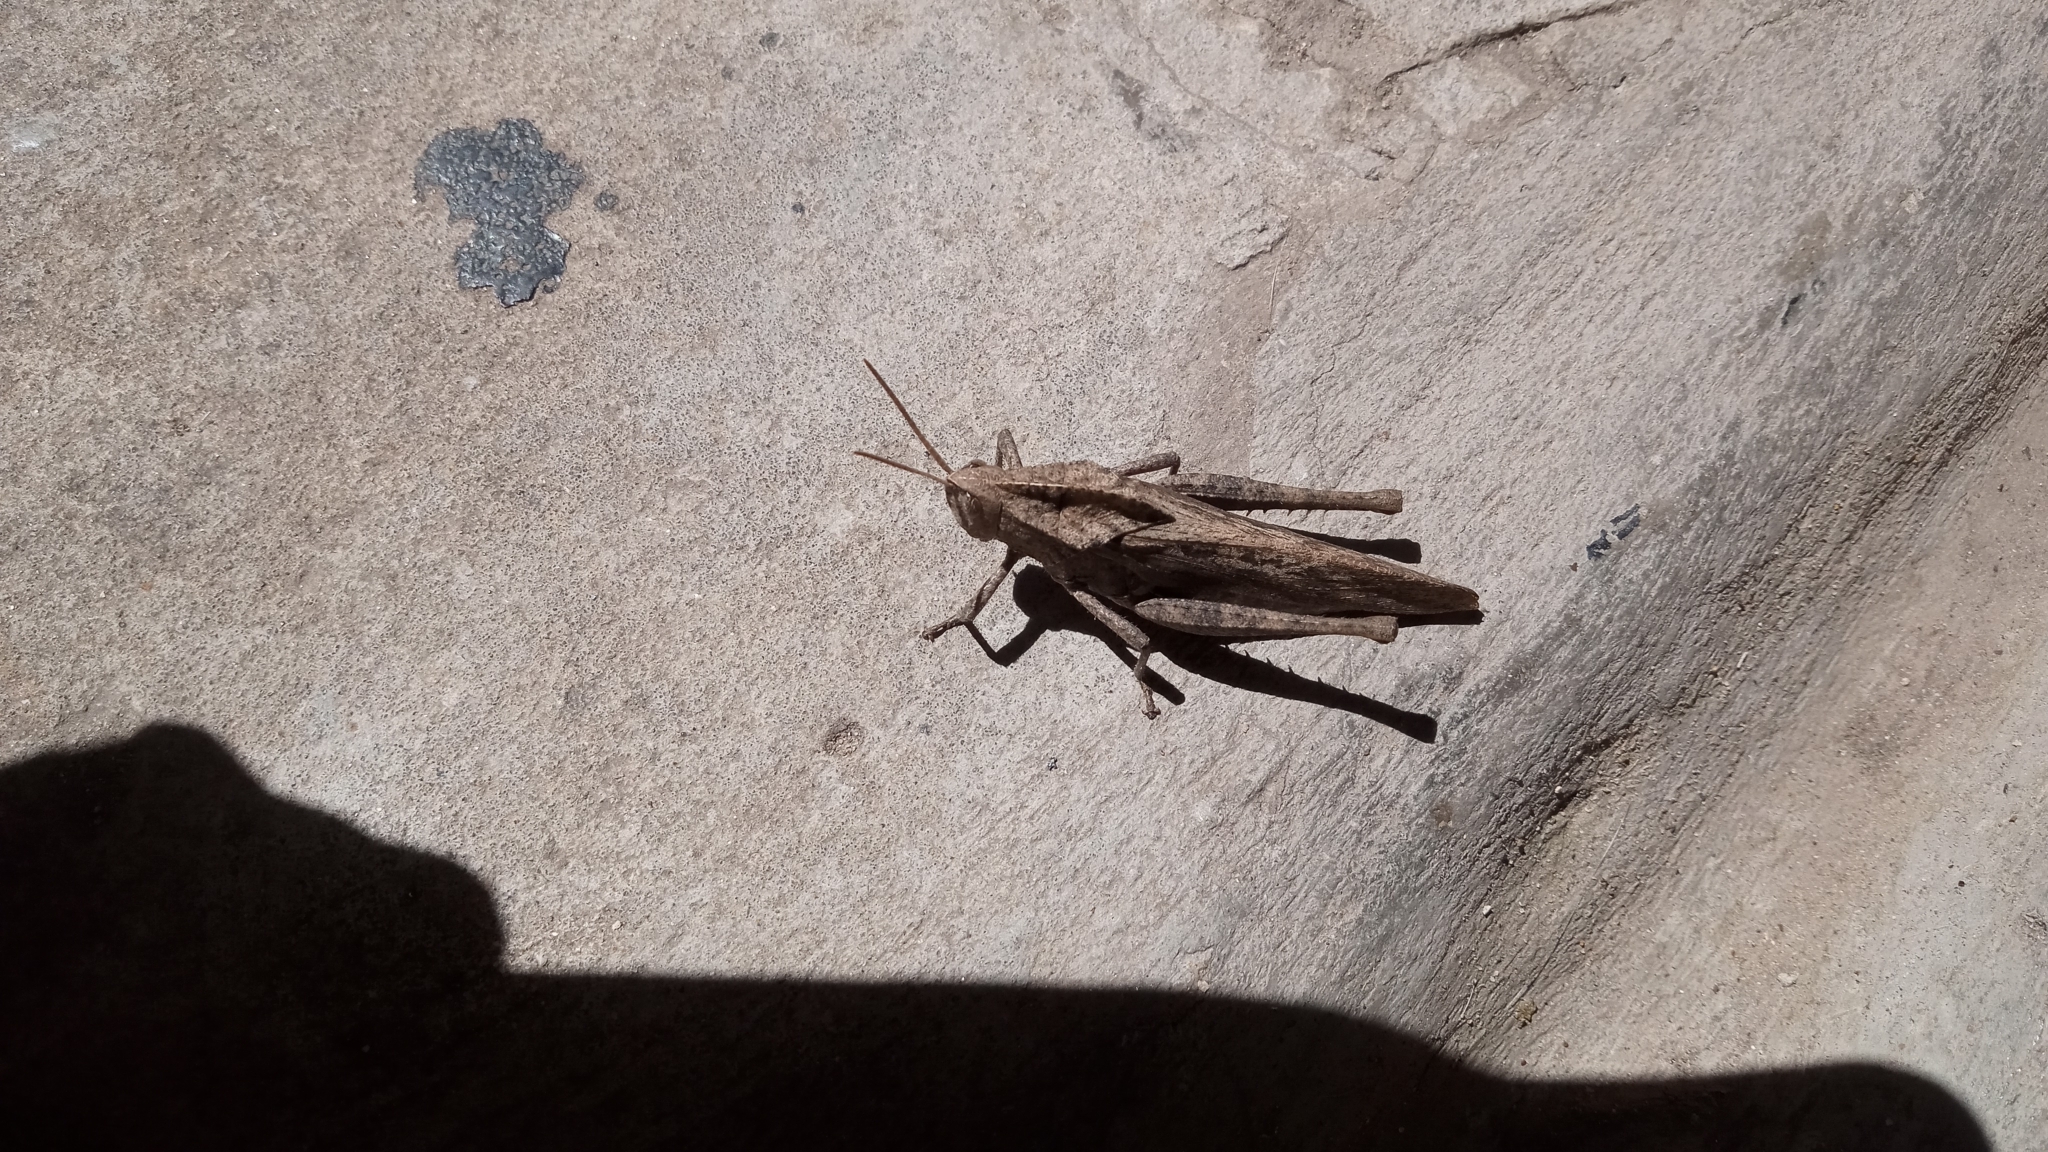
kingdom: Animalia
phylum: Arthropoda
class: Insecta
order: Orthoptera
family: Romaleidae
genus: Xyleus
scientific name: Xyleus discoideus
